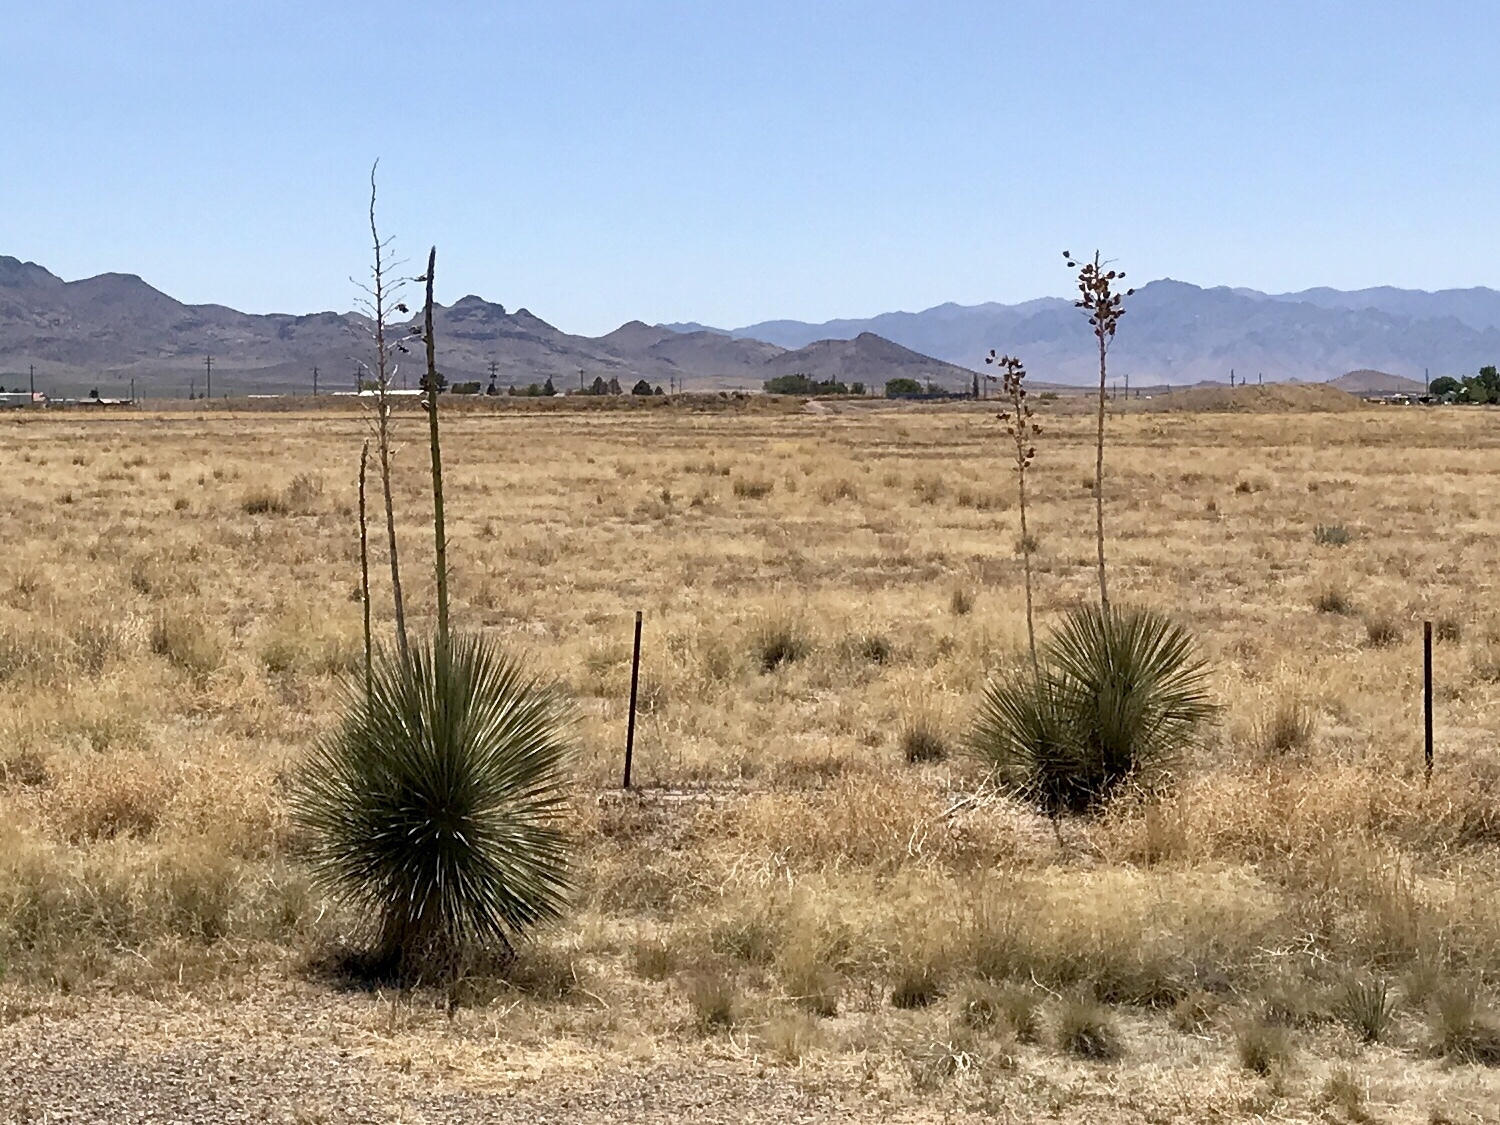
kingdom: Plantae
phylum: Tracheophyta
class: Liliopsida
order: Asparagales
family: Asparagaceae
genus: Yucca
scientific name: Yucca elata
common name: Palmella
